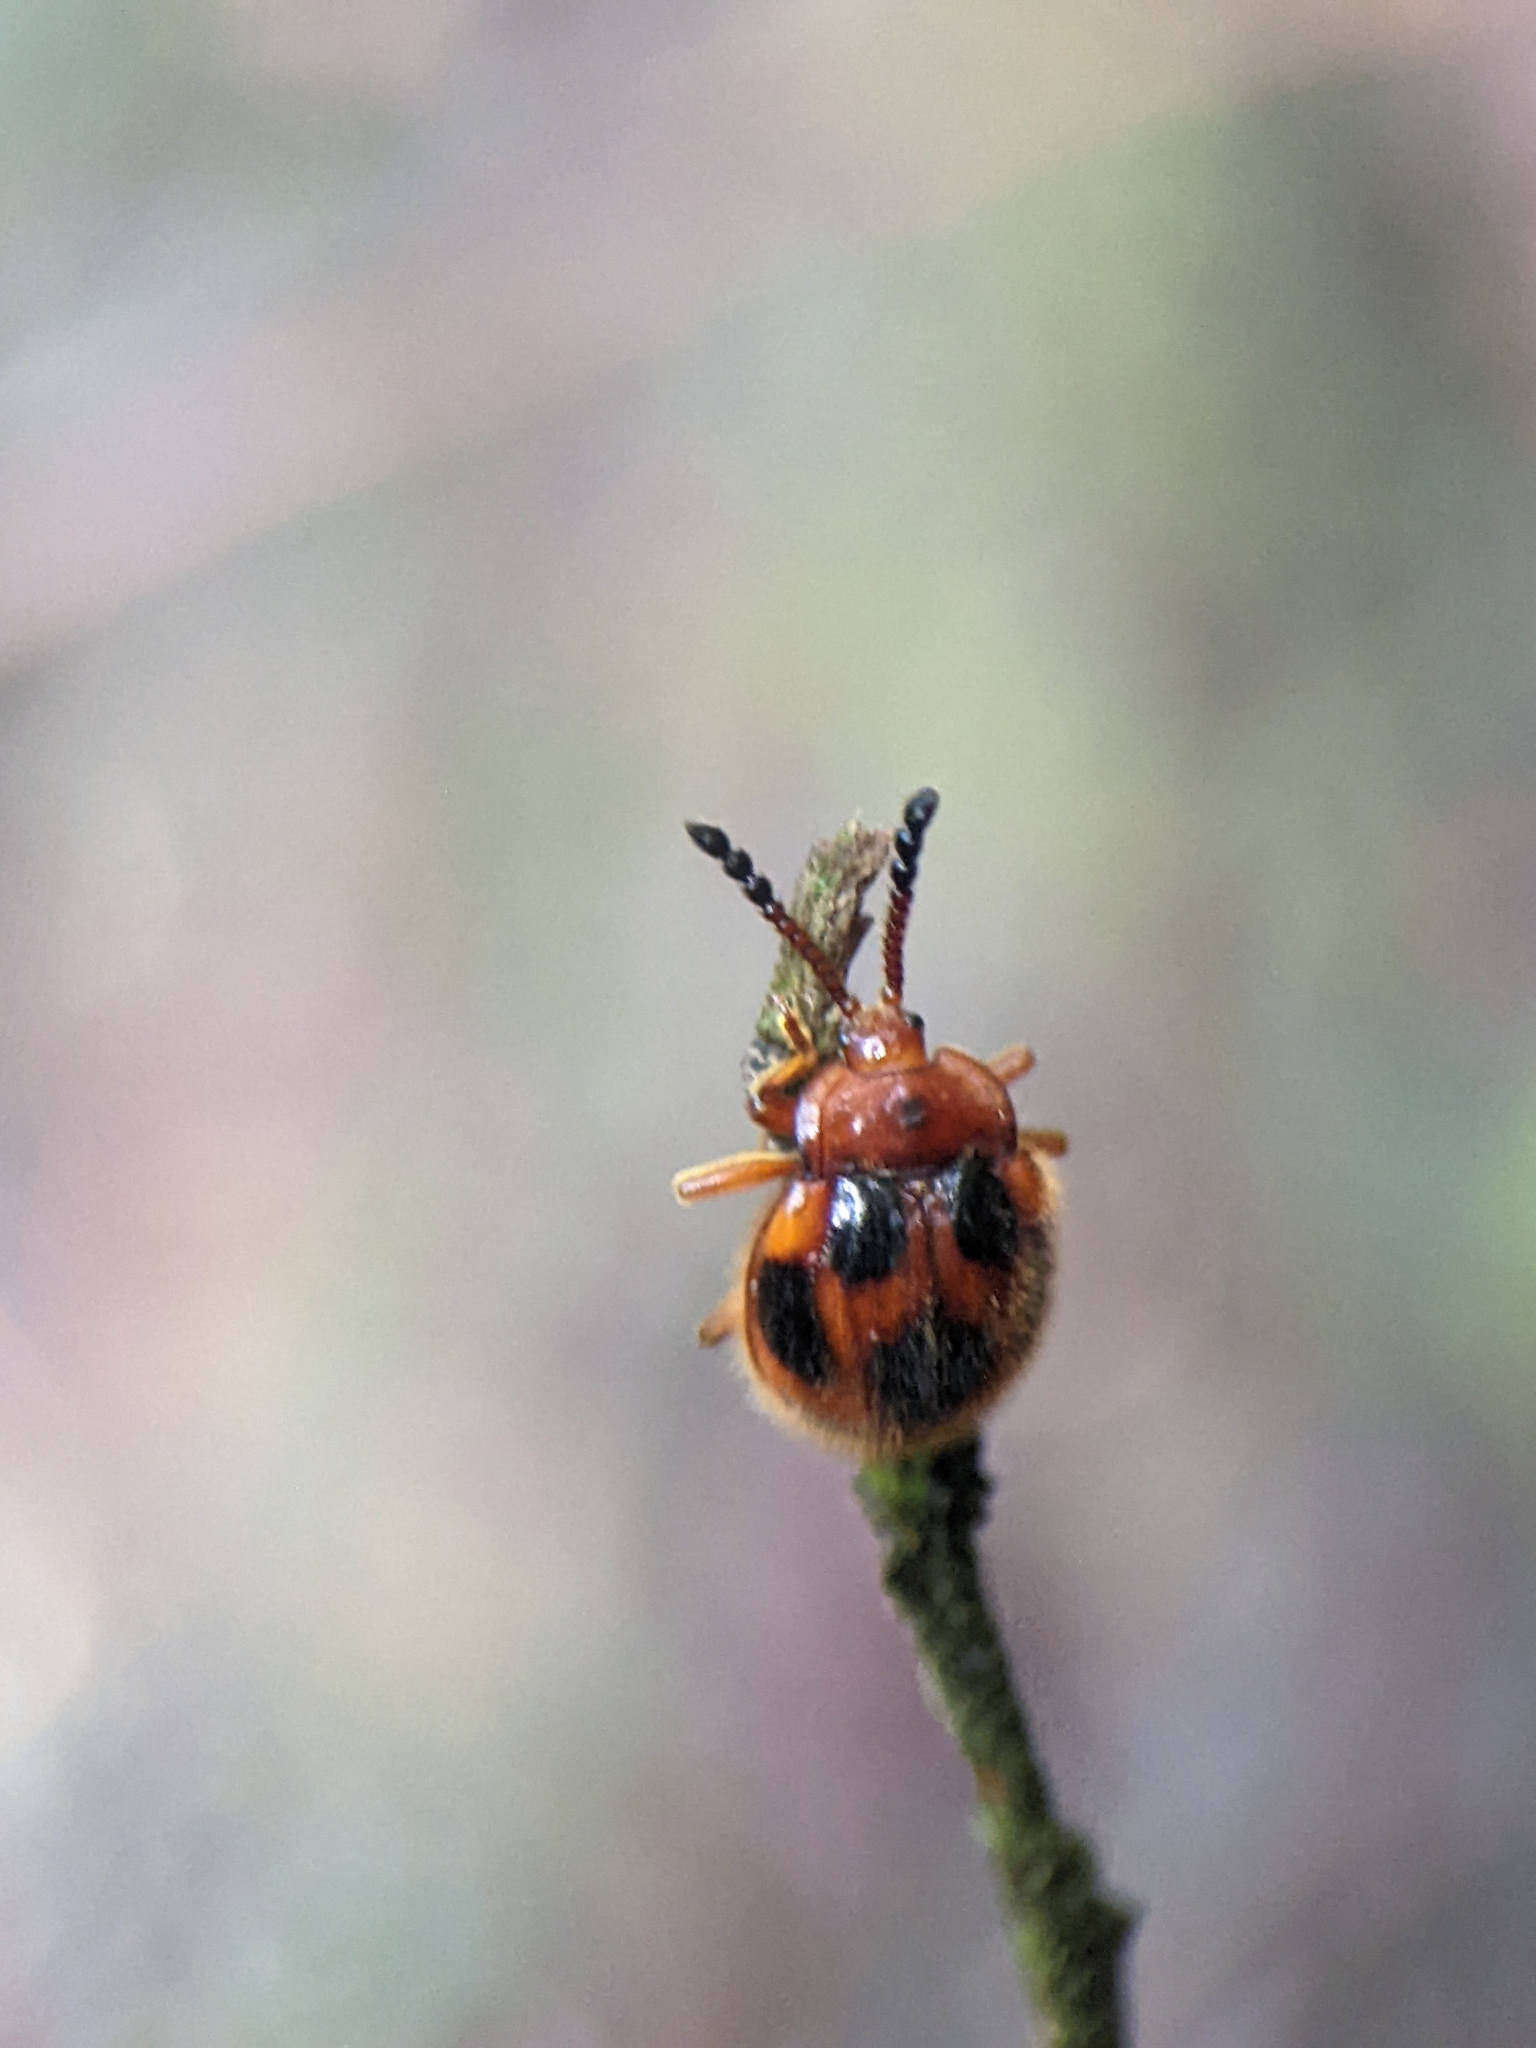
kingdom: Animalia
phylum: Arthropoda
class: Insecta
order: Coleoptera
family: Endomychidae
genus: Stenotarsus
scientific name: Stenotarsus
